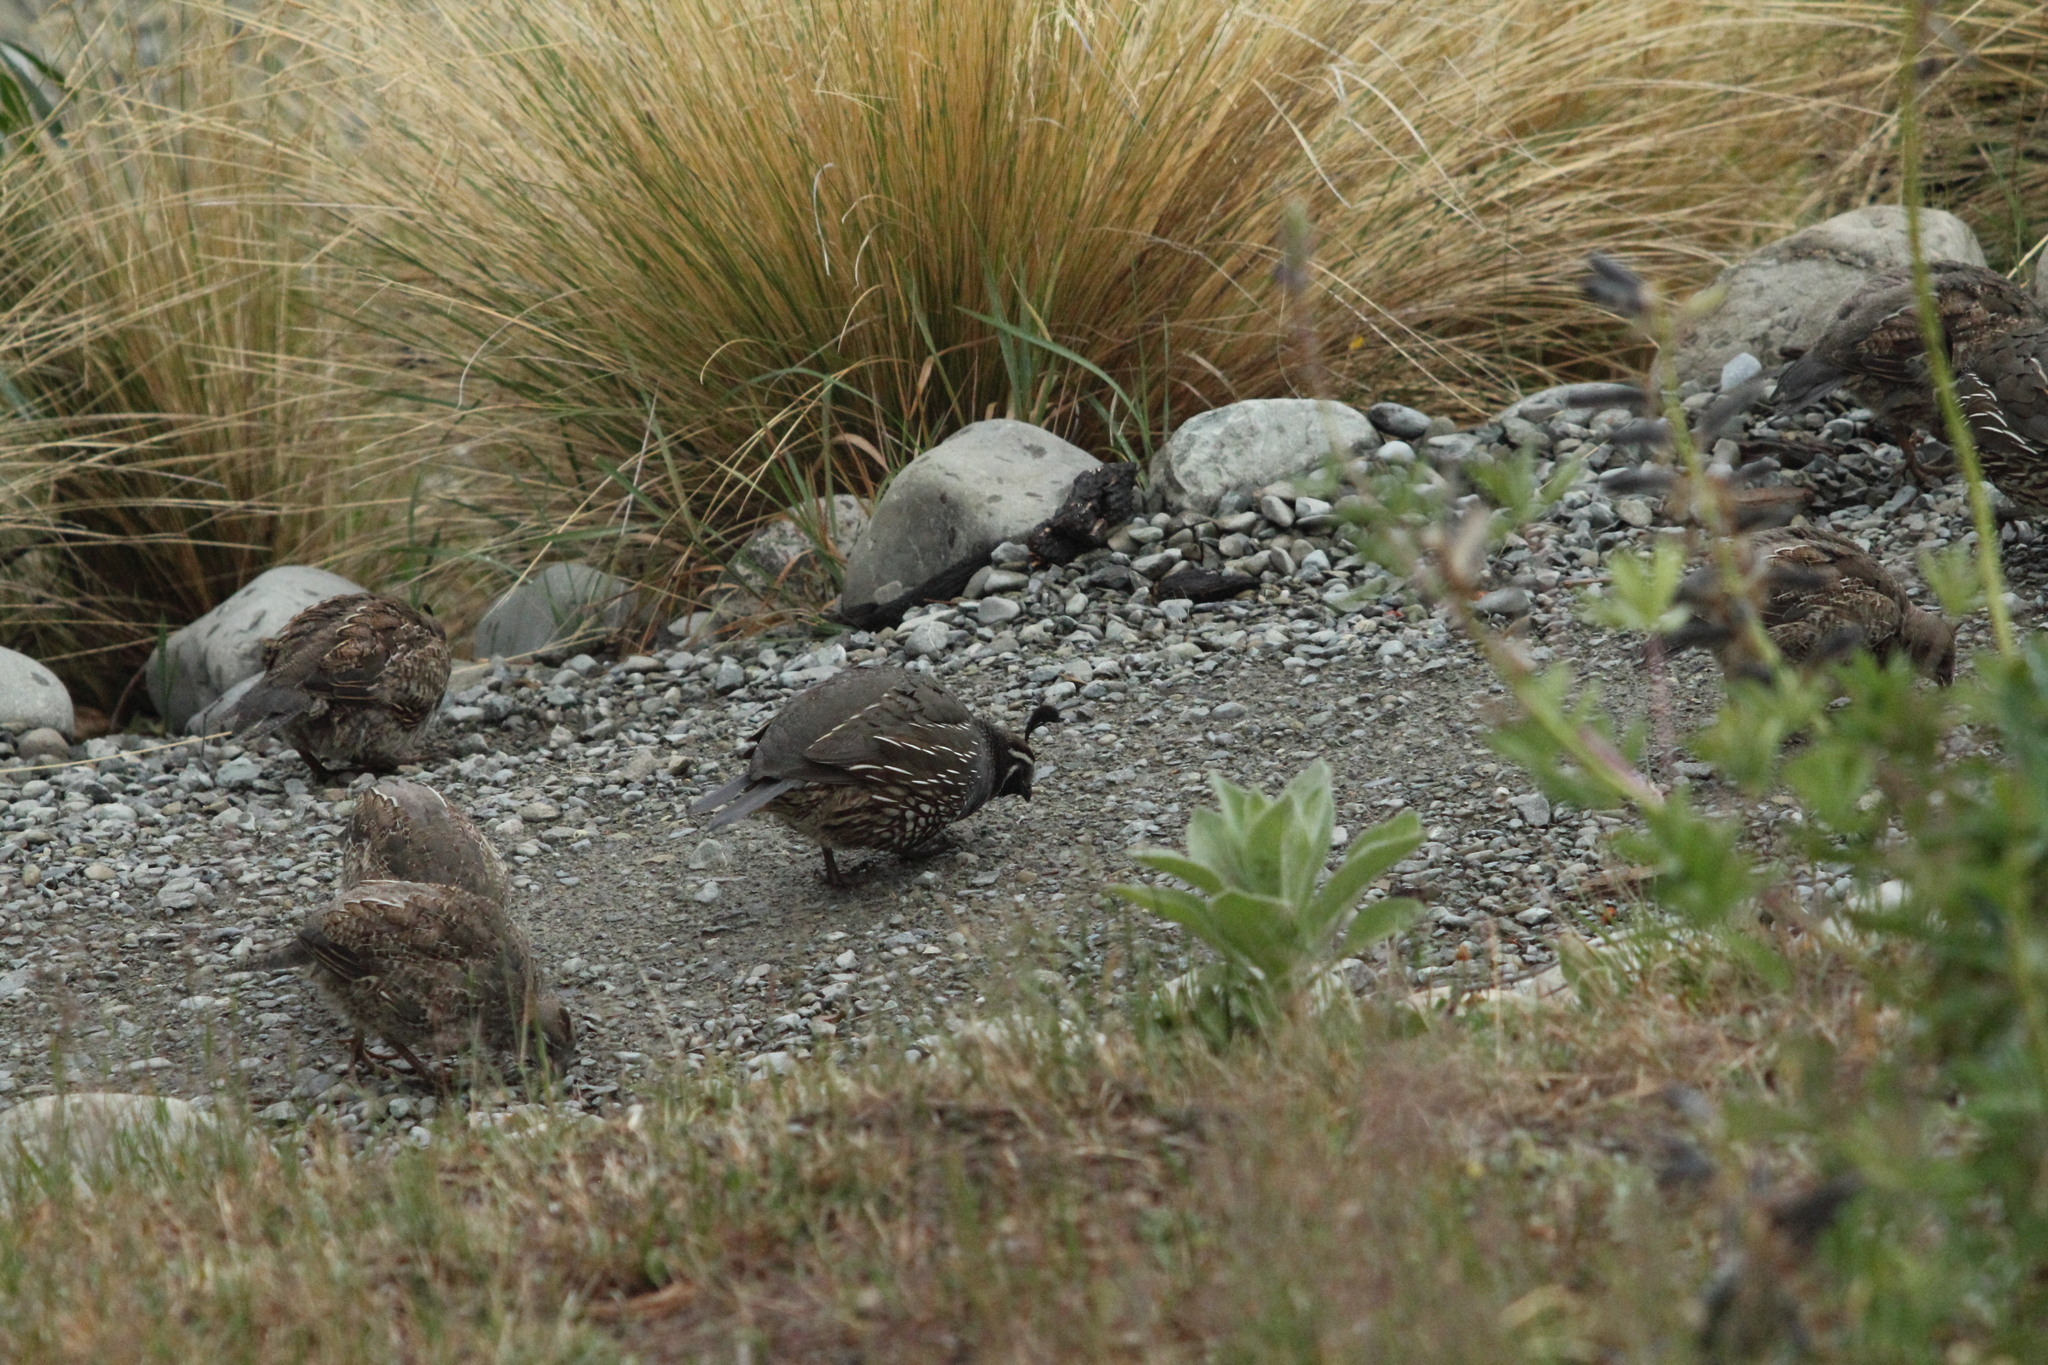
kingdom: Animalia
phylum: Chordata
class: Aves
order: Galliformes
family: Odontophoridae
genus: Callipepla
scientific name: Callipepla californica
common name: California quail
